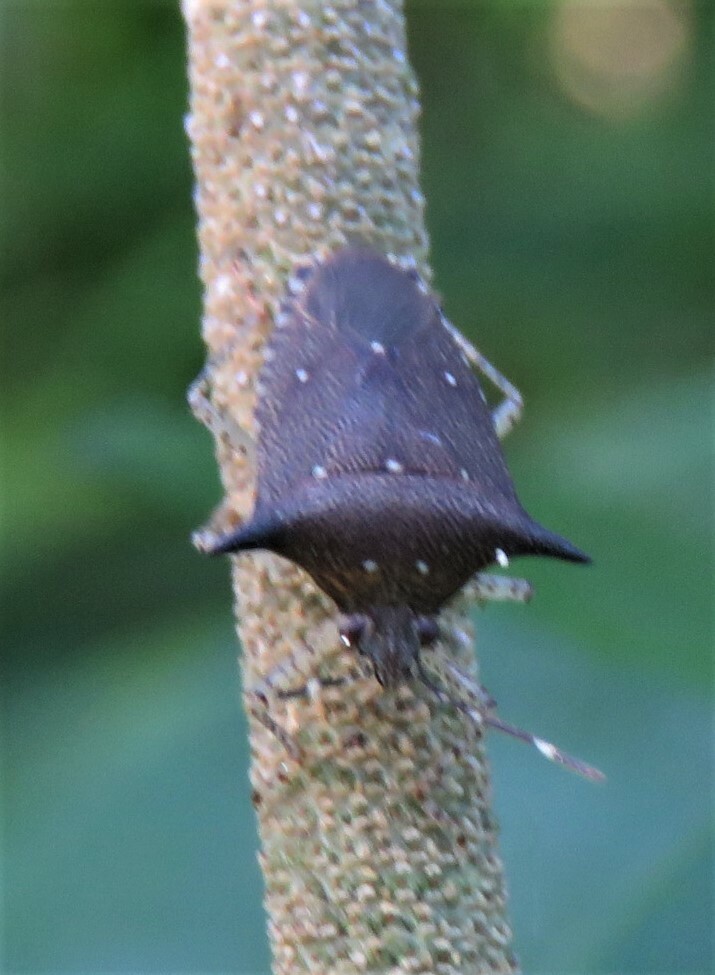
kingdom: Animalia
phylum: Arthropoda
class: Insecta
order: Hemiptera
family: Pentatomidae
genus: Sibaria
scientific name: Sibaria armata
